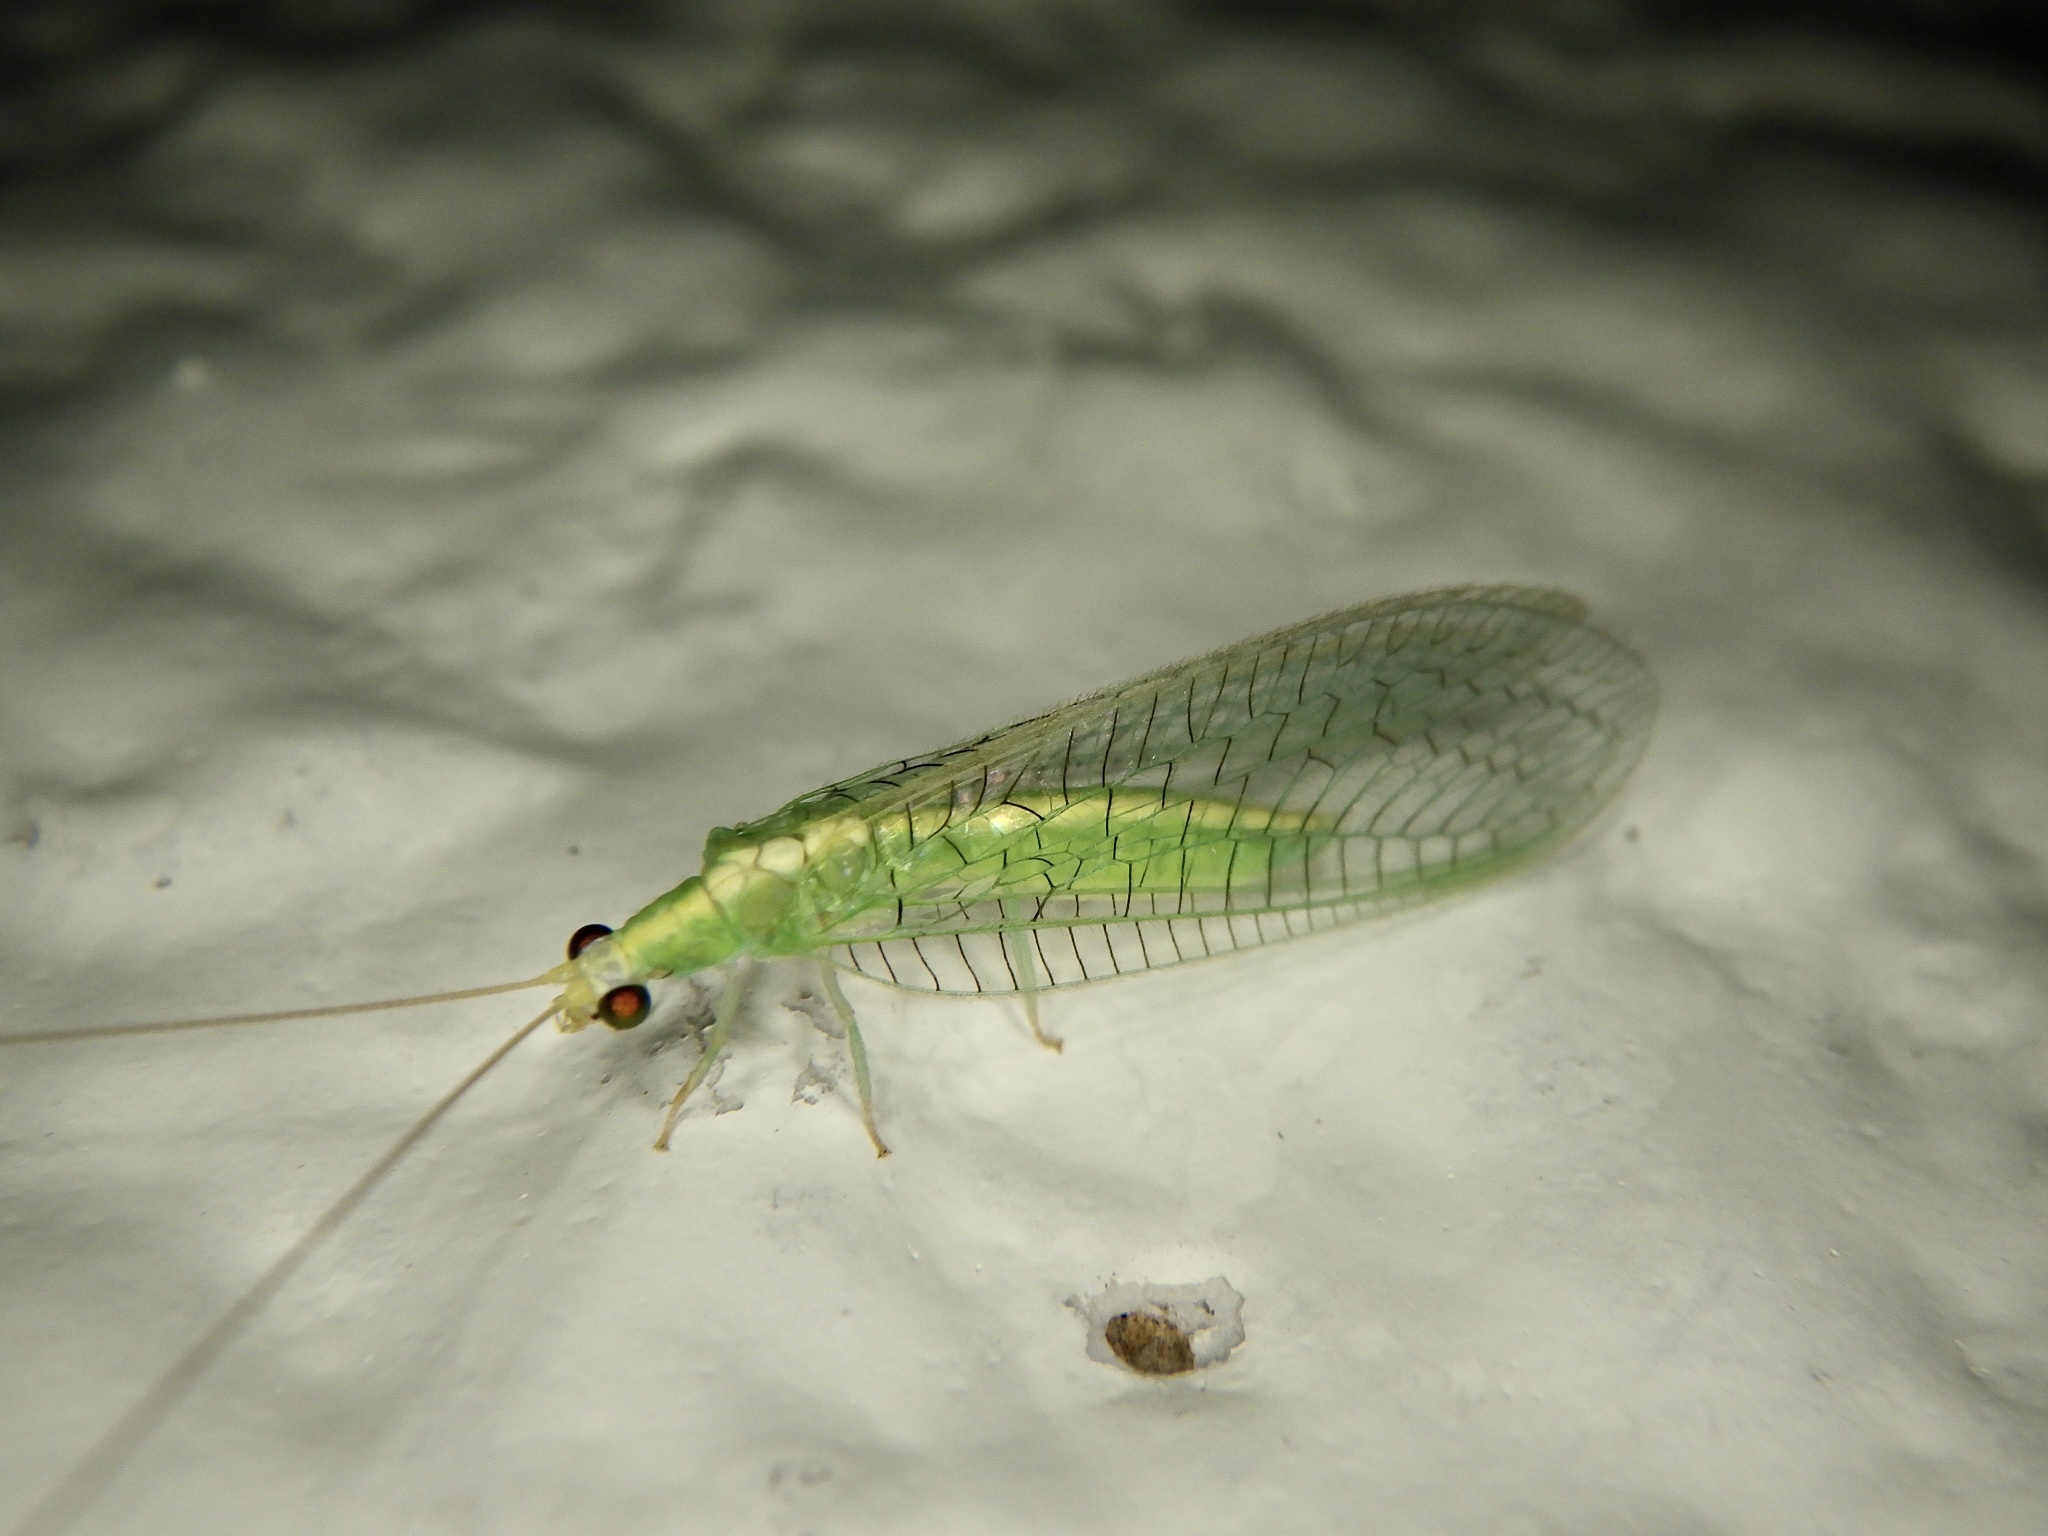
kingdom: Animalia
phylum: Arthropoda
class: Insecta
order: Neuroptera
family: Chrysopidae
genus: Pseudomallada
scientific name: Pseudomallada formosanus
